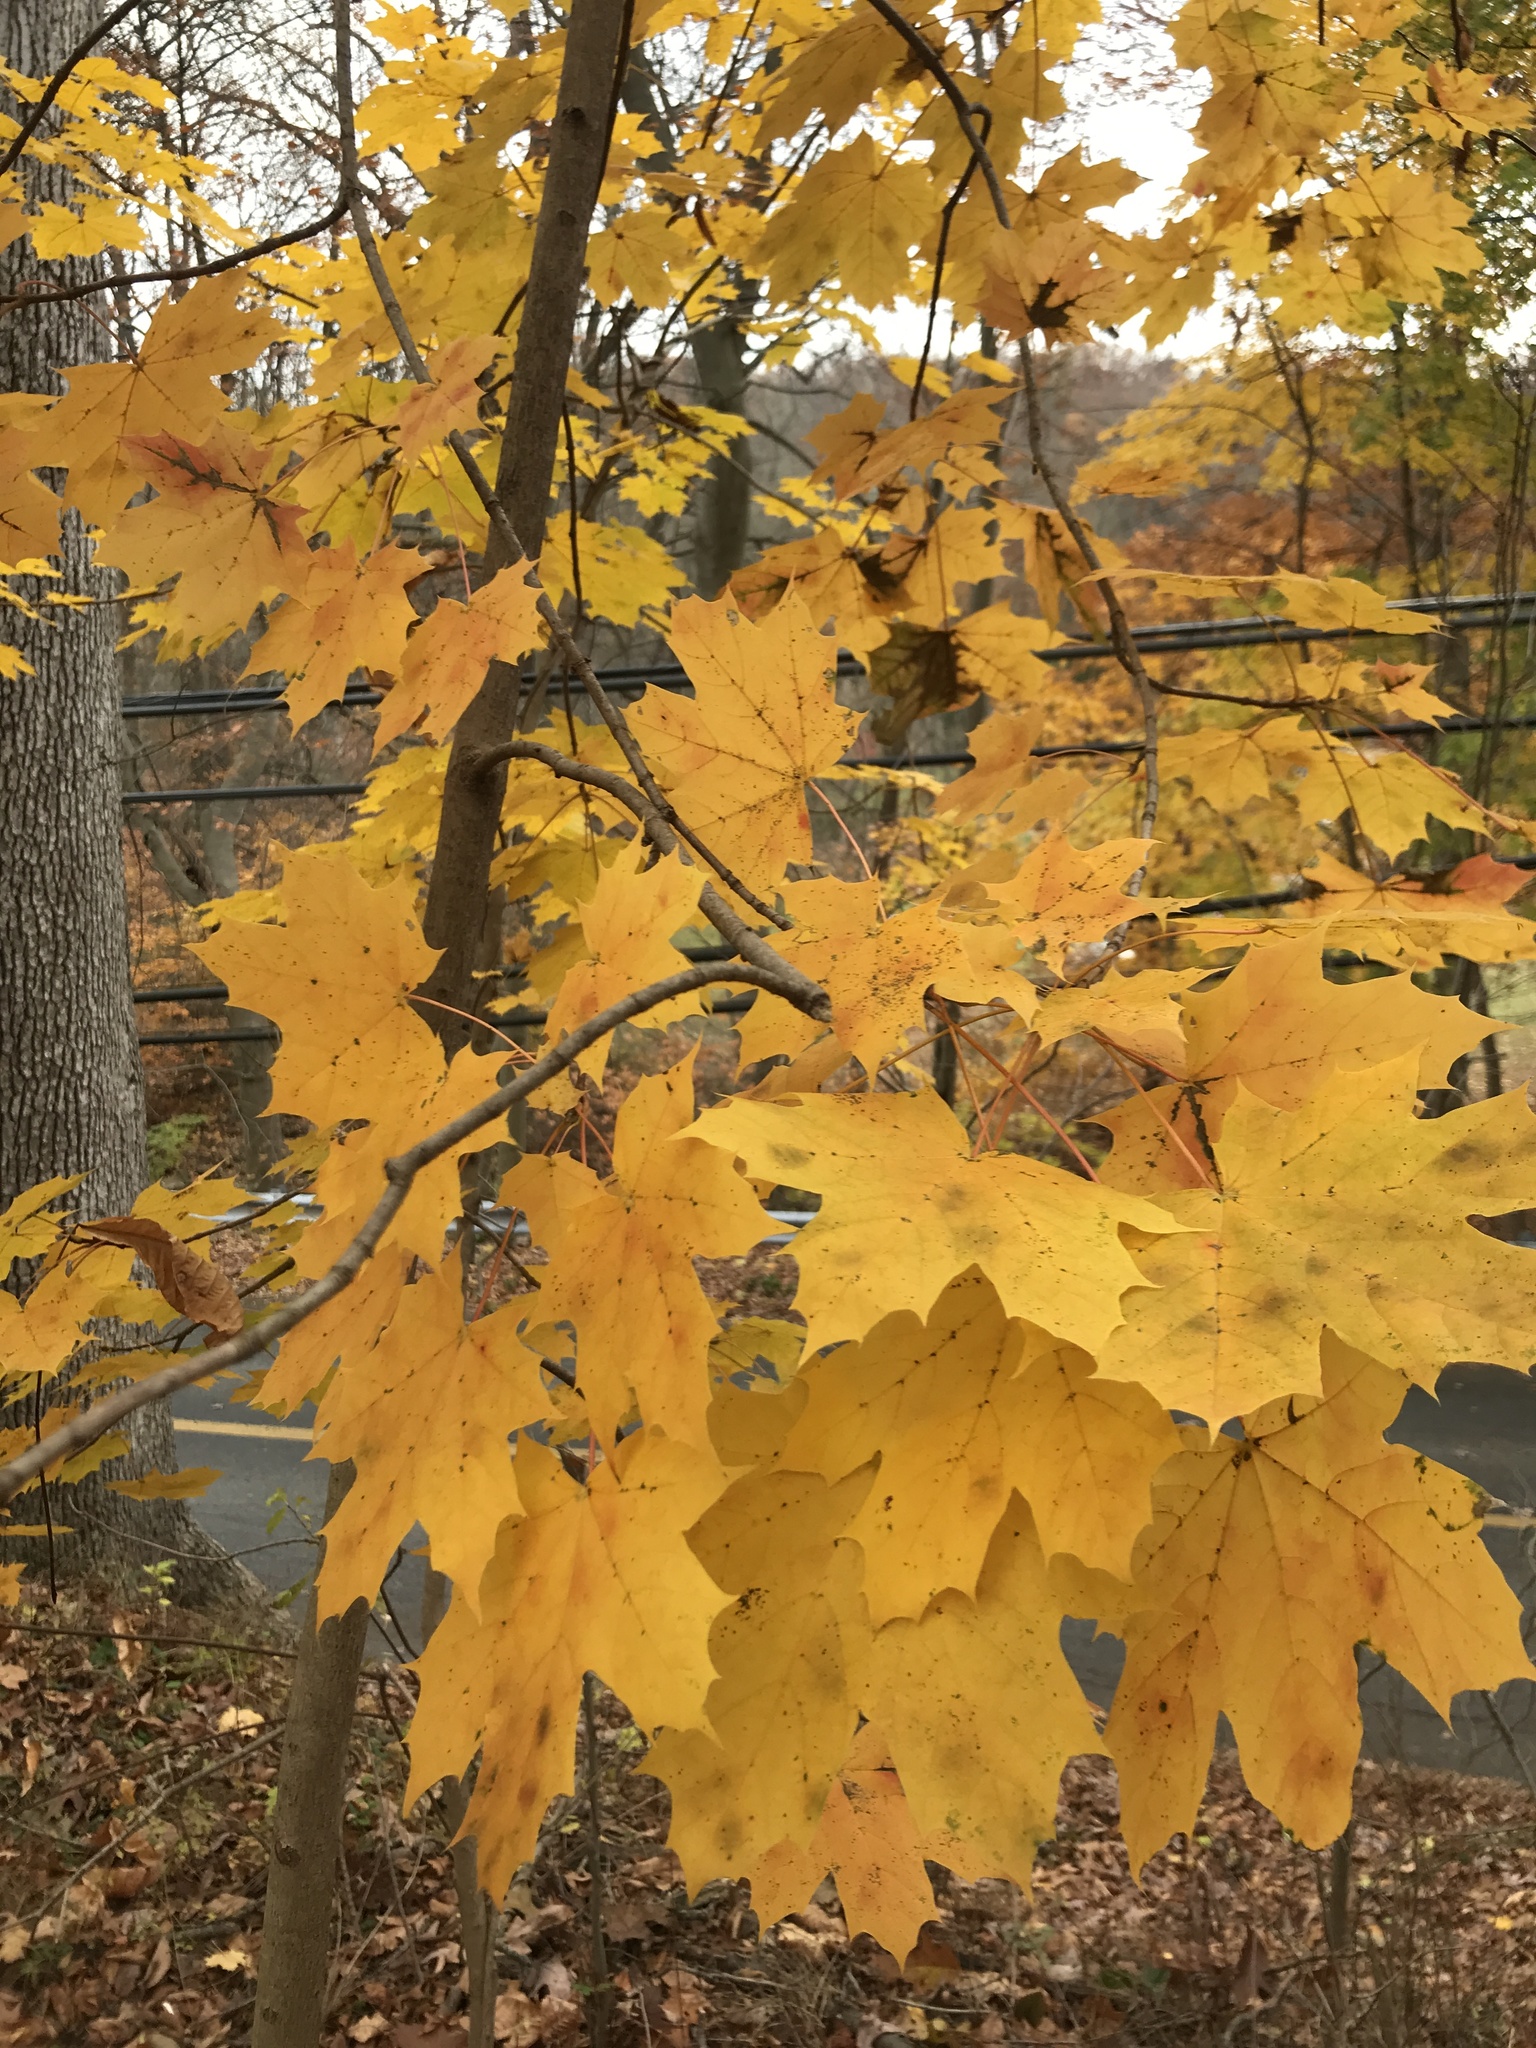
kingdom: Plantae
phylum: Tracheophyta
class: Magnoliopsida
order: Sapindales
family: Sapindaceae
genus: Acer
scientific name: Acer platanoides
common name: Norway maple
